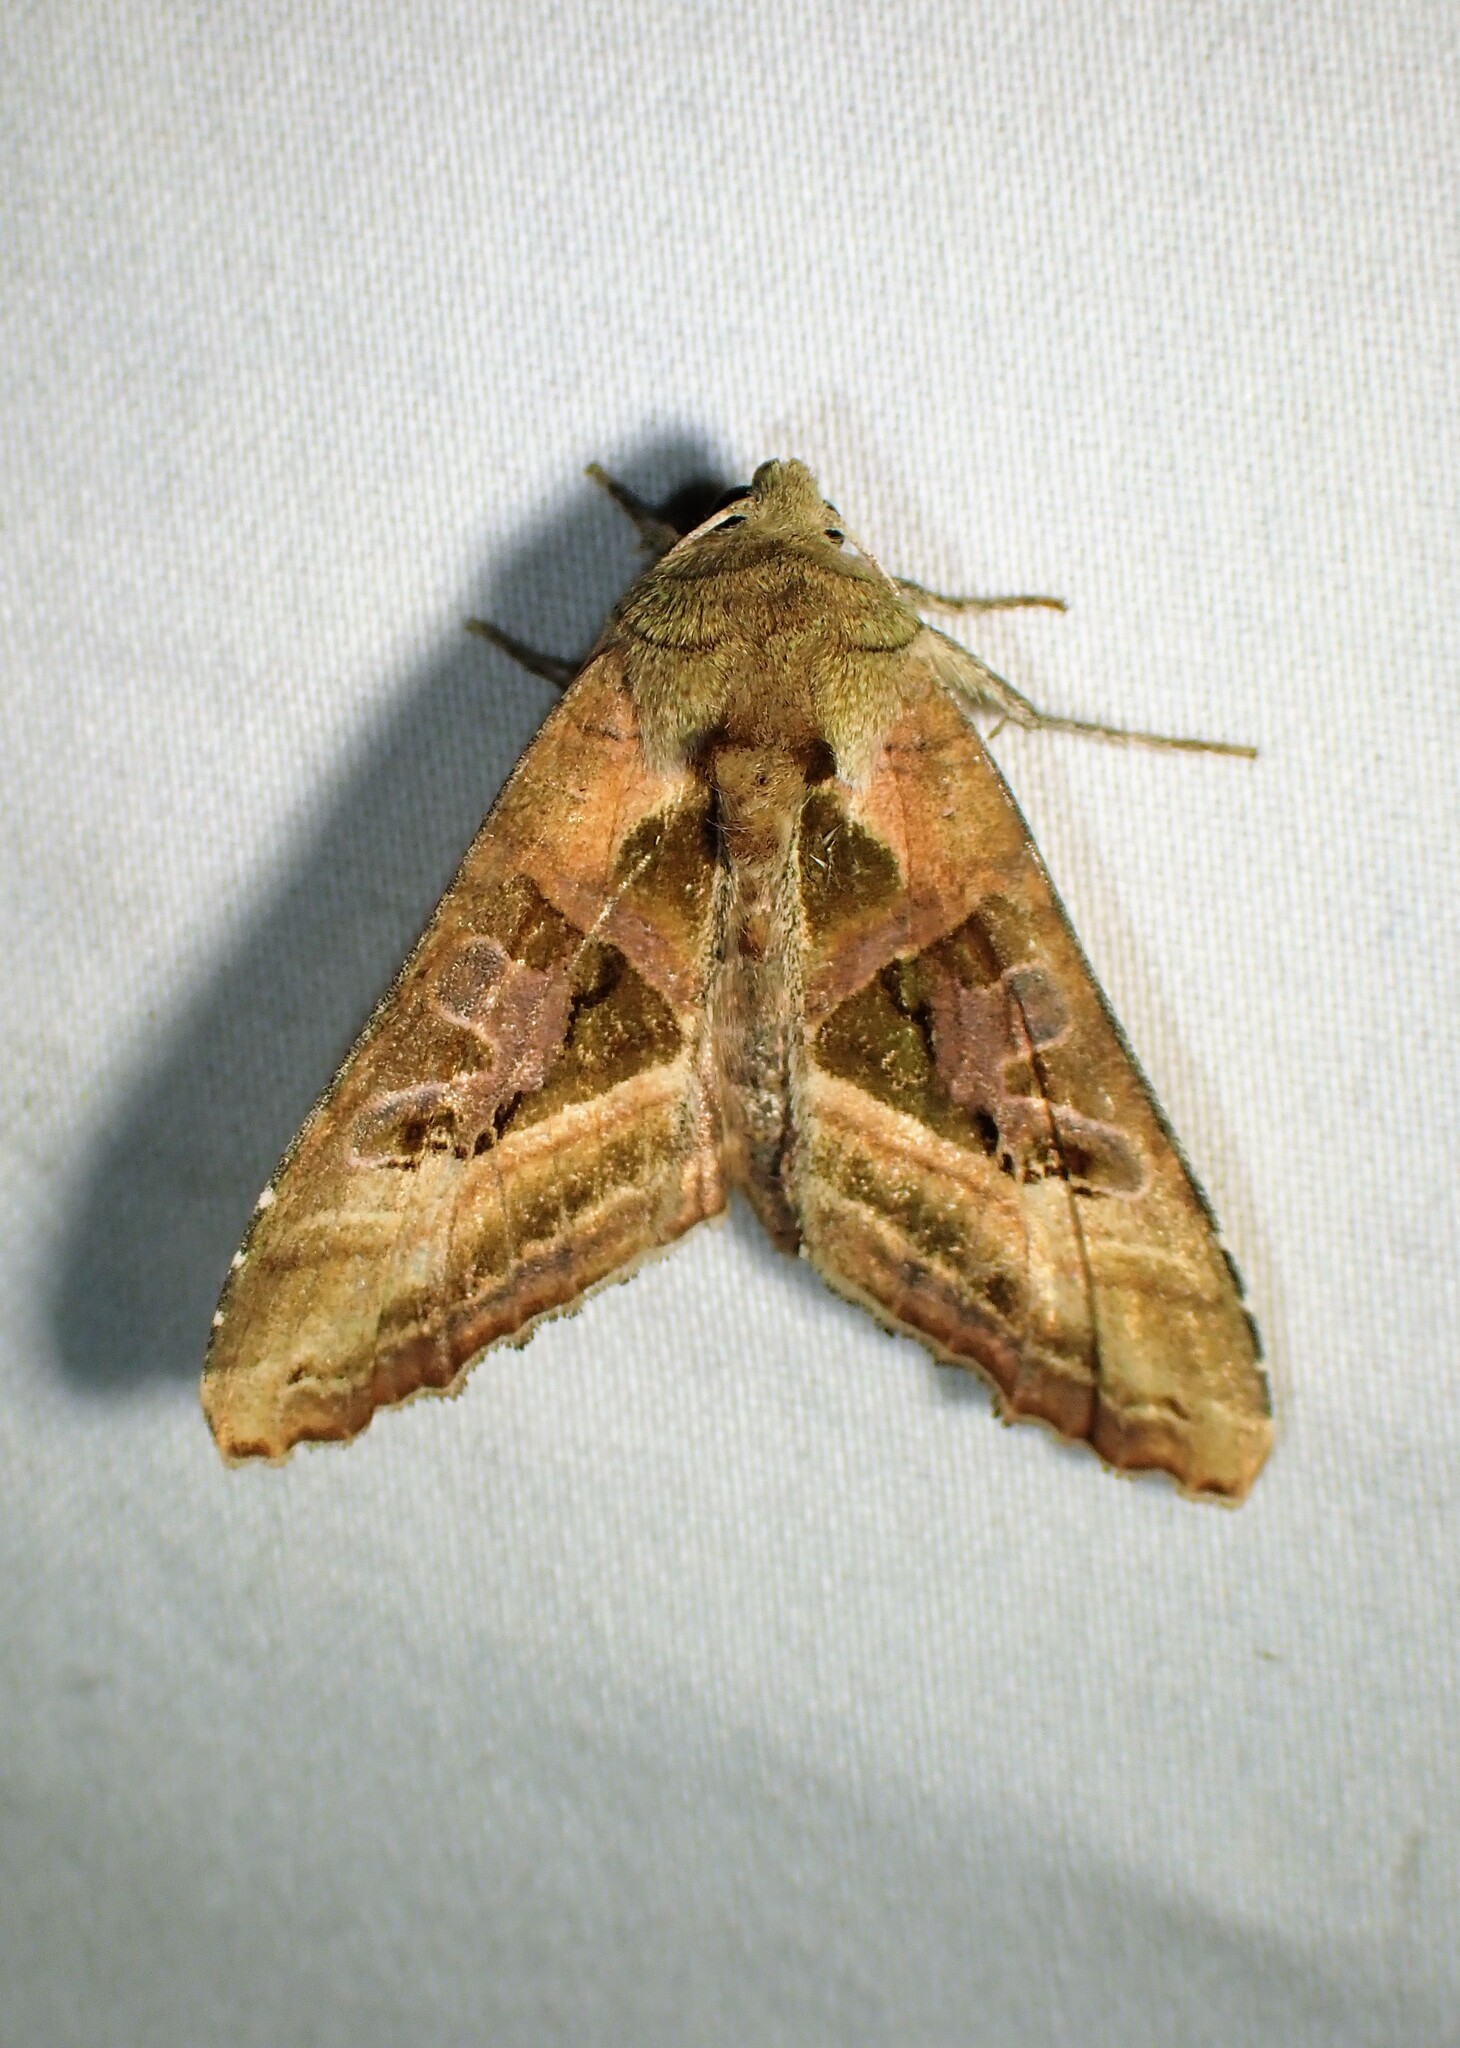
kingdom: Animalia
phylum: Arthropoda
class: Insecta
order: Lepidoptera
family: Noctuidae
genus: Phlogophora
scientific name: Phlogophora iris
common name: Olive angle shades
